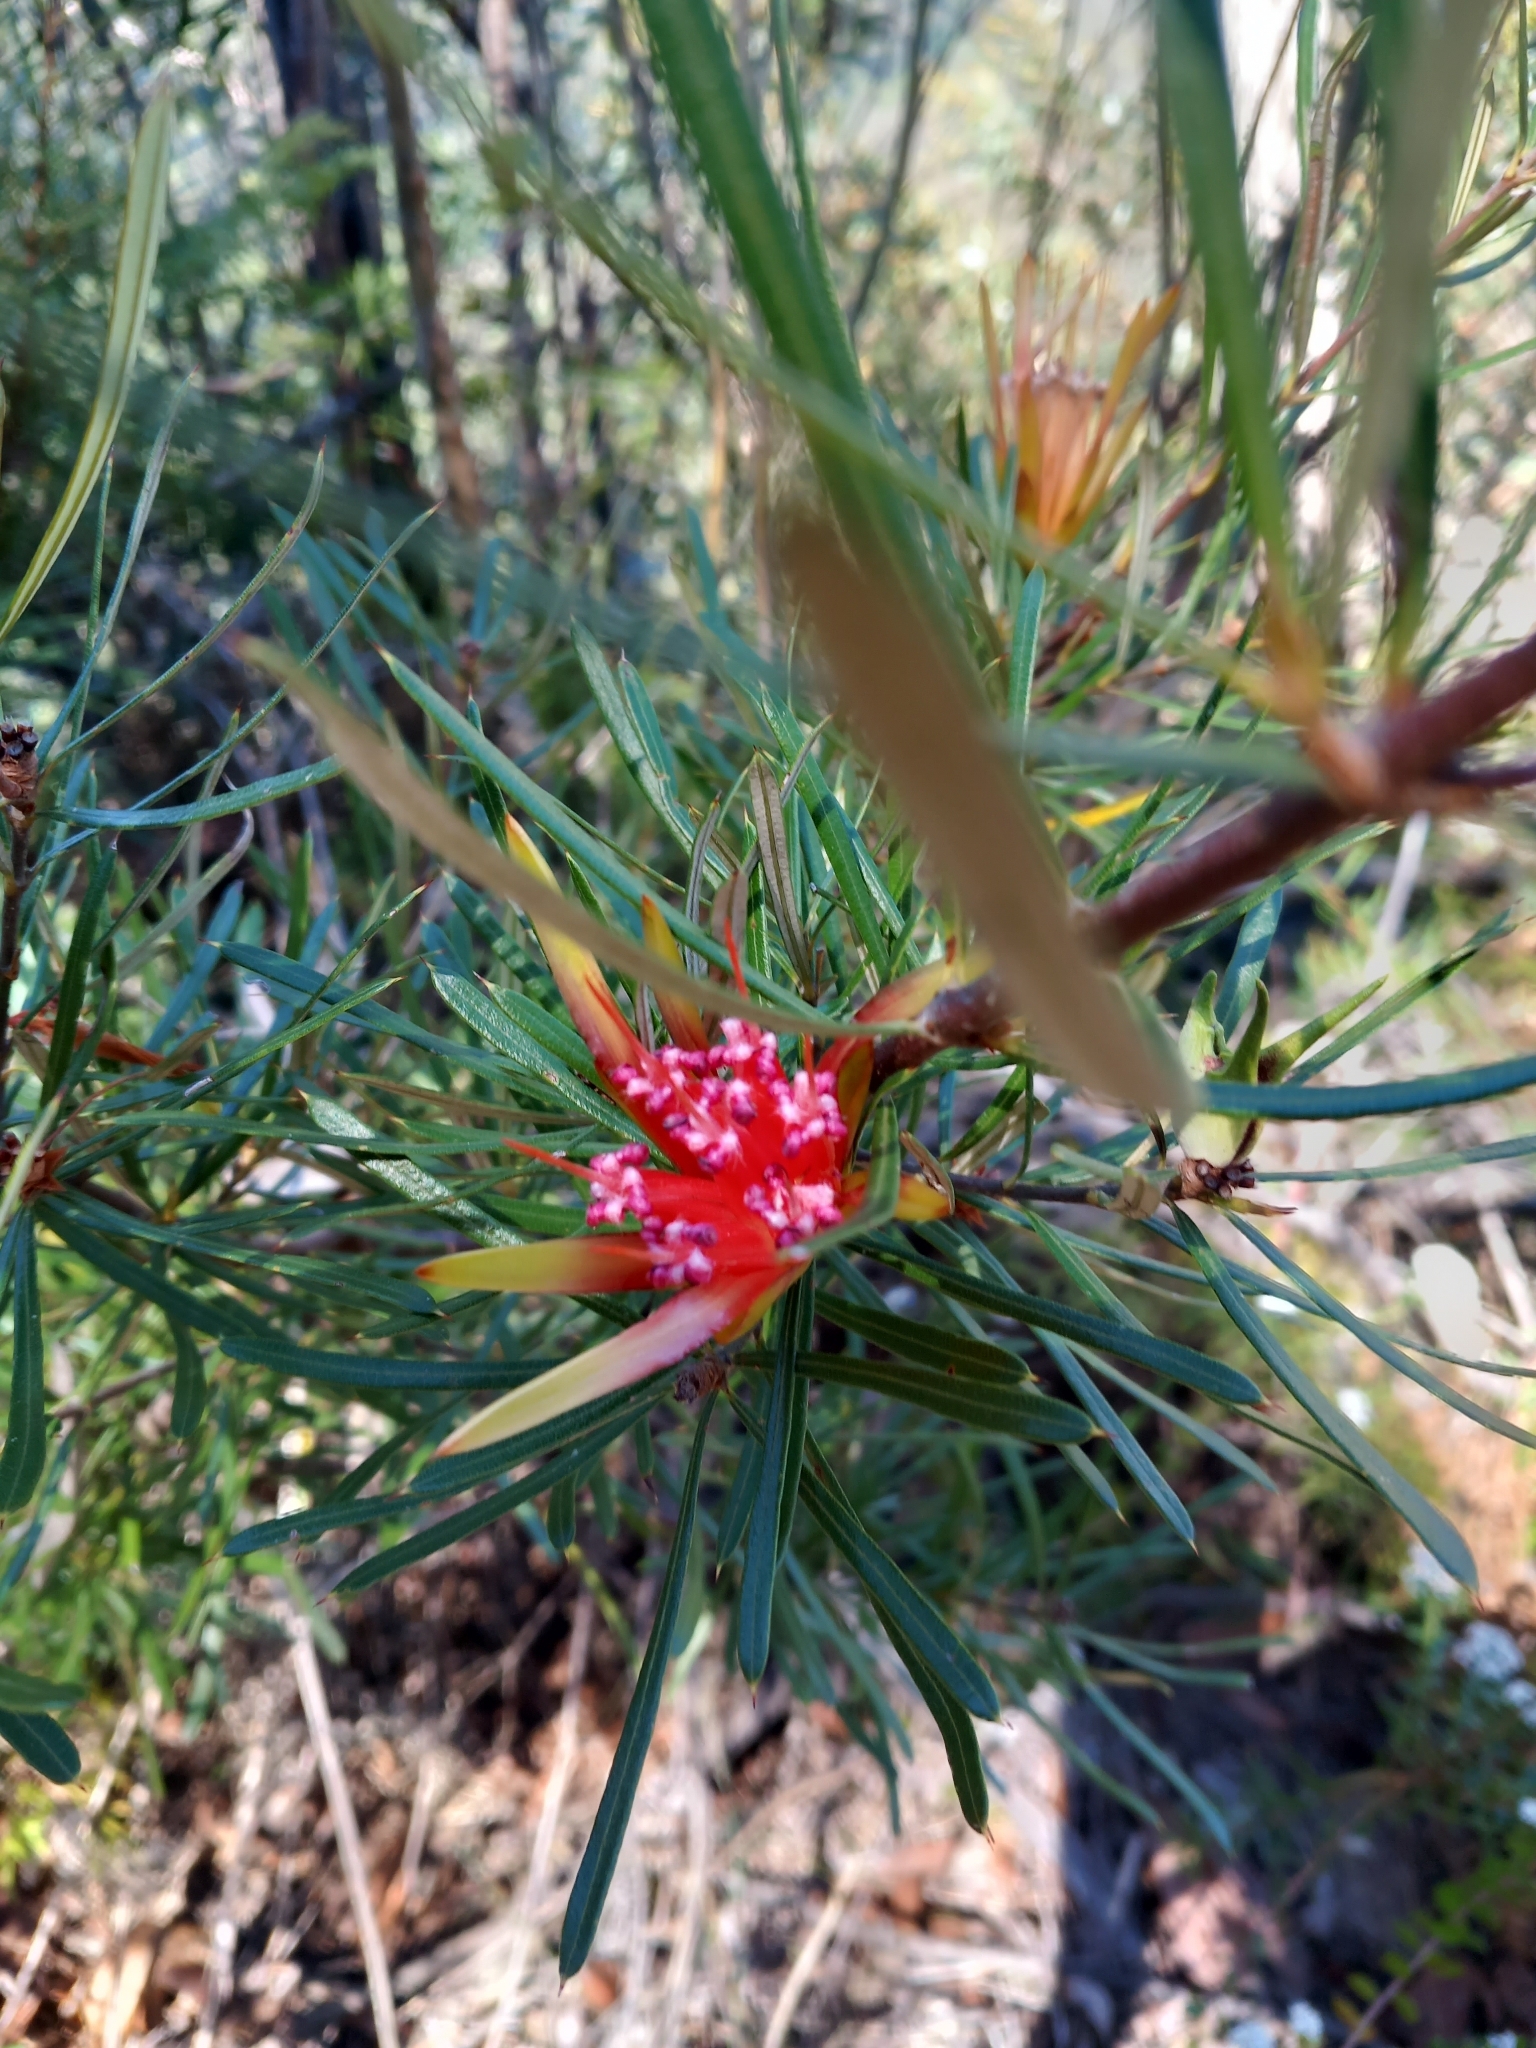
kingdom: Plantae
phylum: Tracheophyta
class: Magnoliopsida
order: Proteales
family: Proteaceae
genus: Lambertia
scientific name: Lambertia formosa
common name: Mountain-devil
